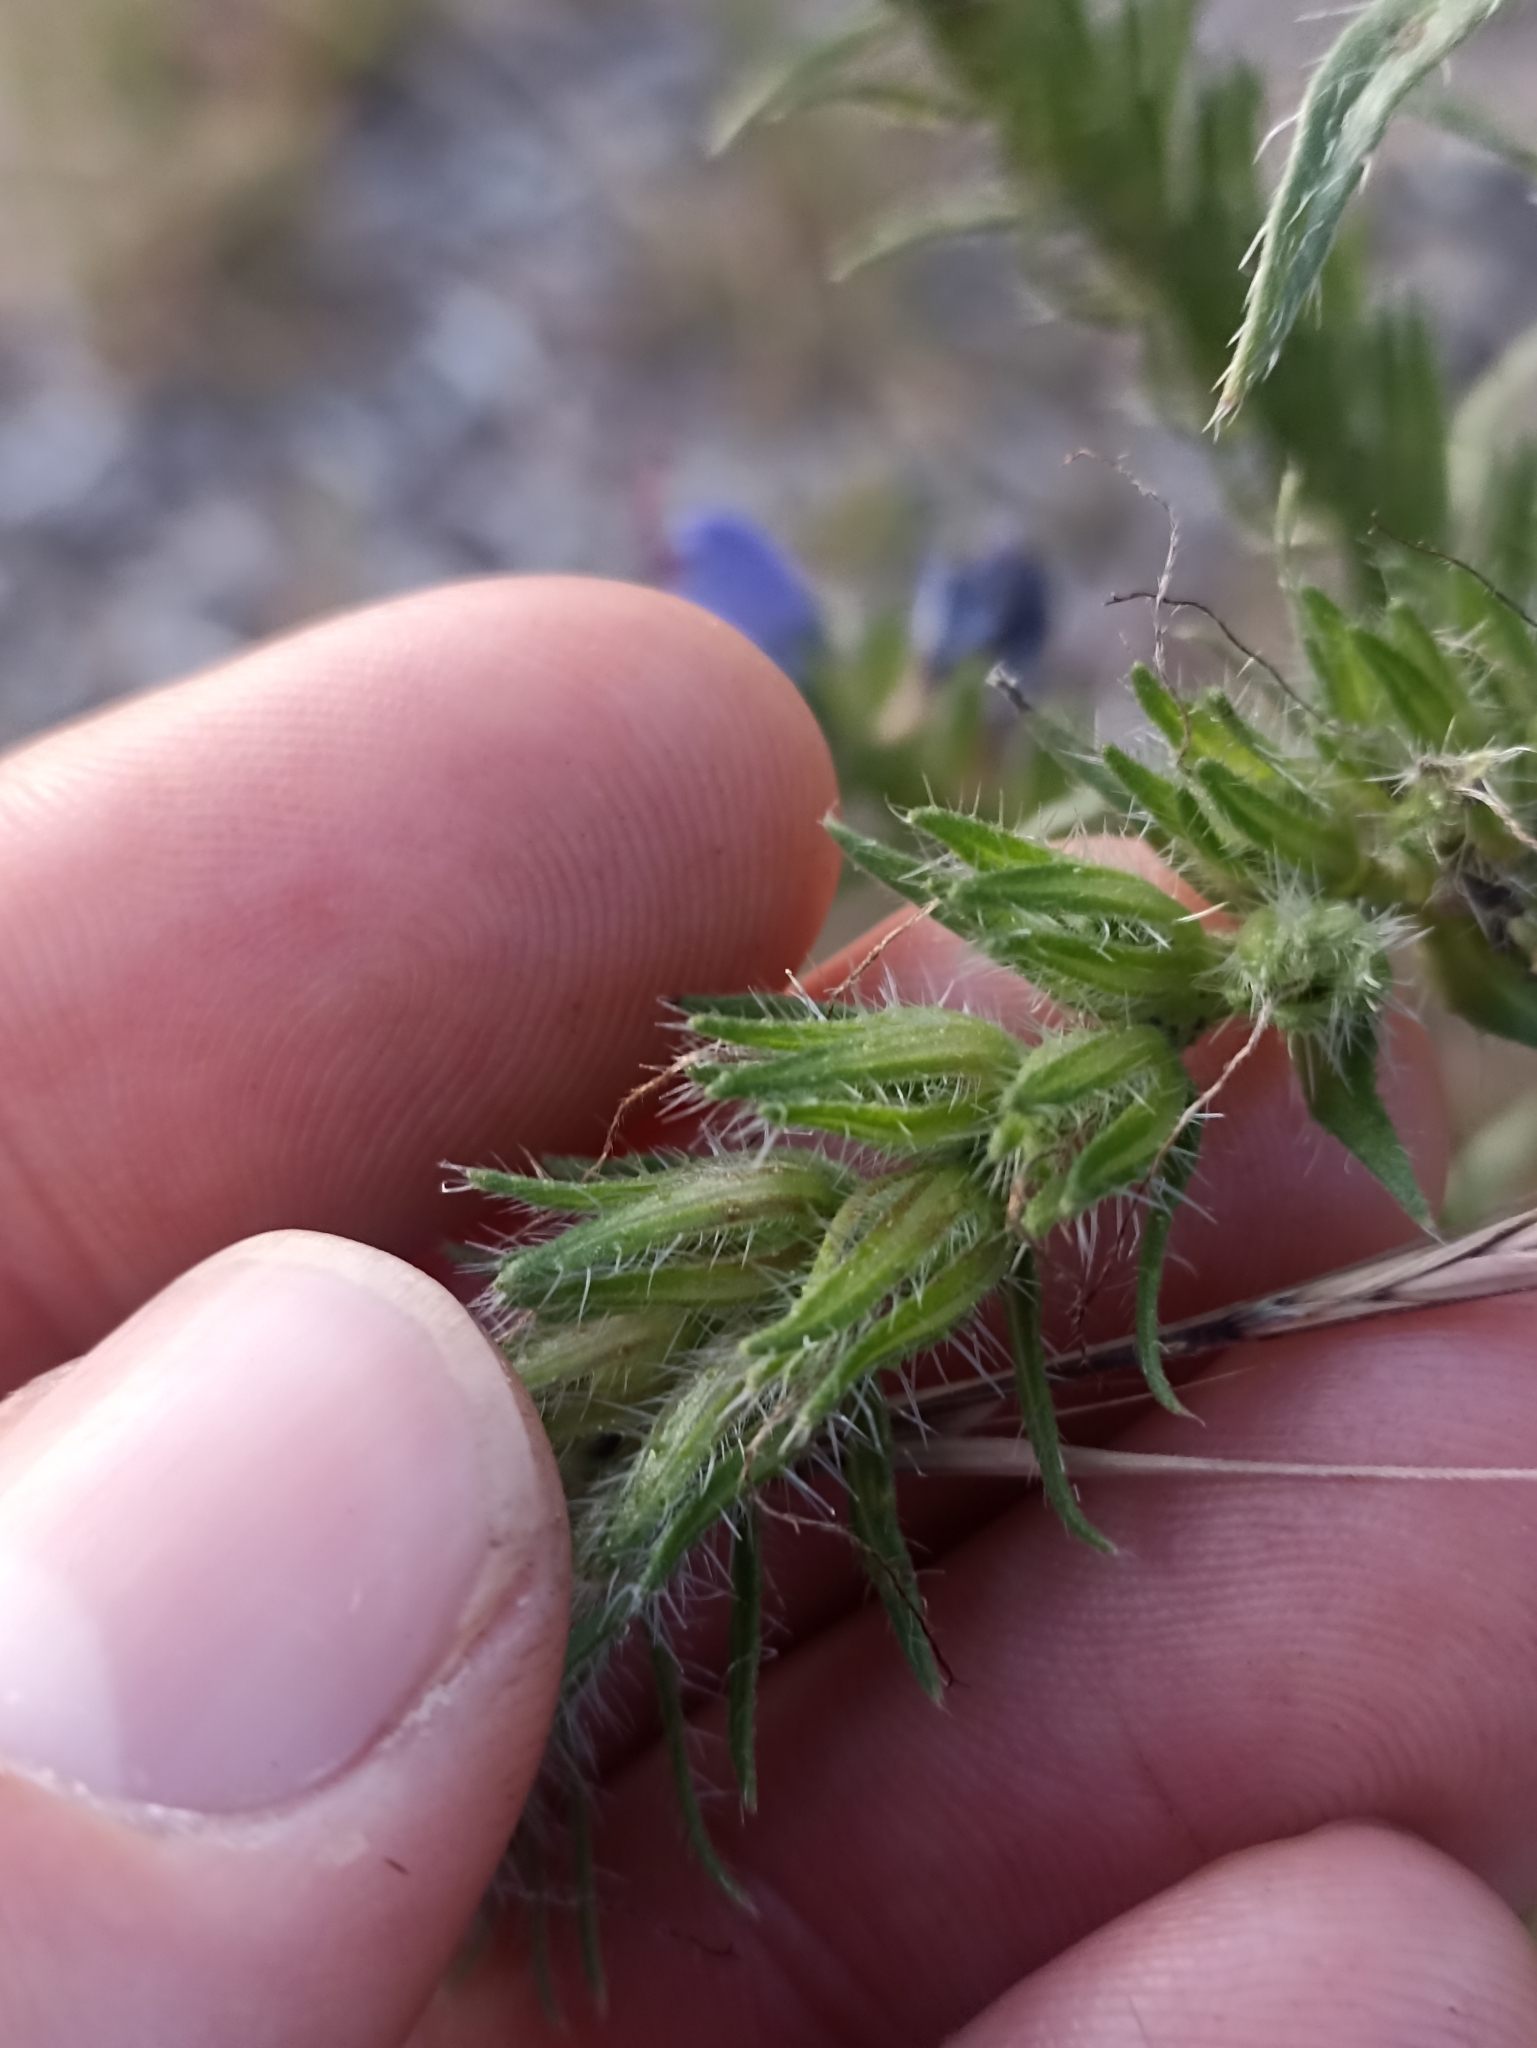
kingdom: Plantae
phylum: Tracheophyta
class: Magnoliopsida
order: Boraginales
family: Boraginaceae
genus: Echium
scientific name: Echium vulgare
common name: Common viper's bugloss
